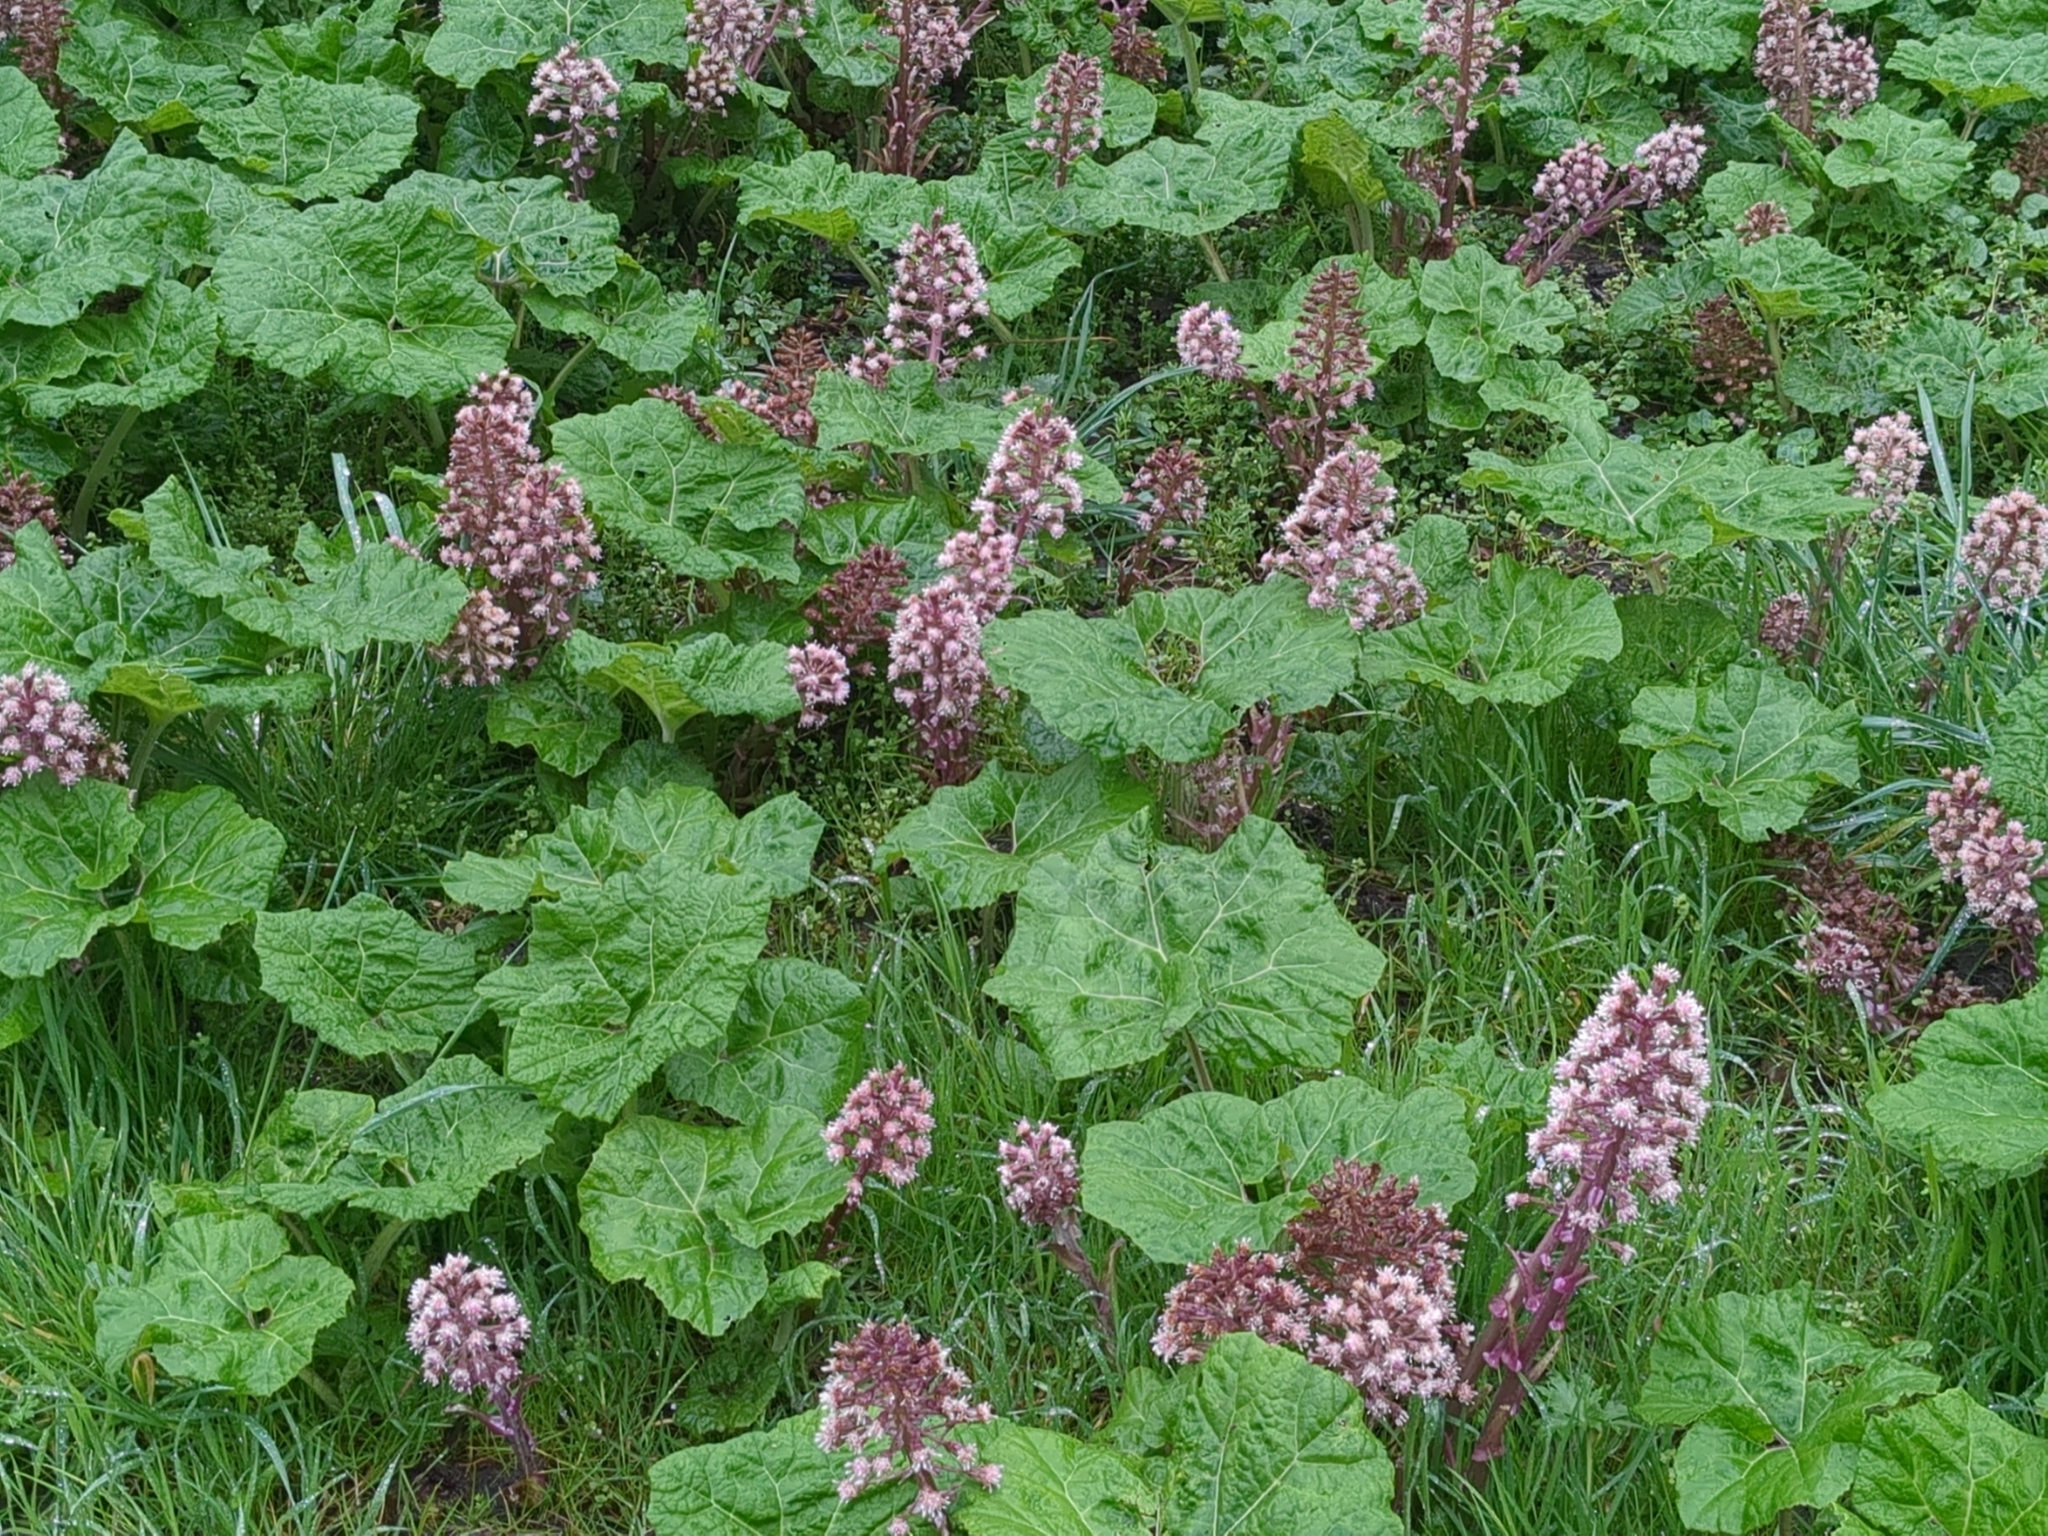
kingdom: Plantae
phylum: Tracheophyta
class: Magnoliopsida
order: Asterales
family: Asteraceae
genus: Petasites
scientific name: Petasites hybridus
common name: Butterbur
